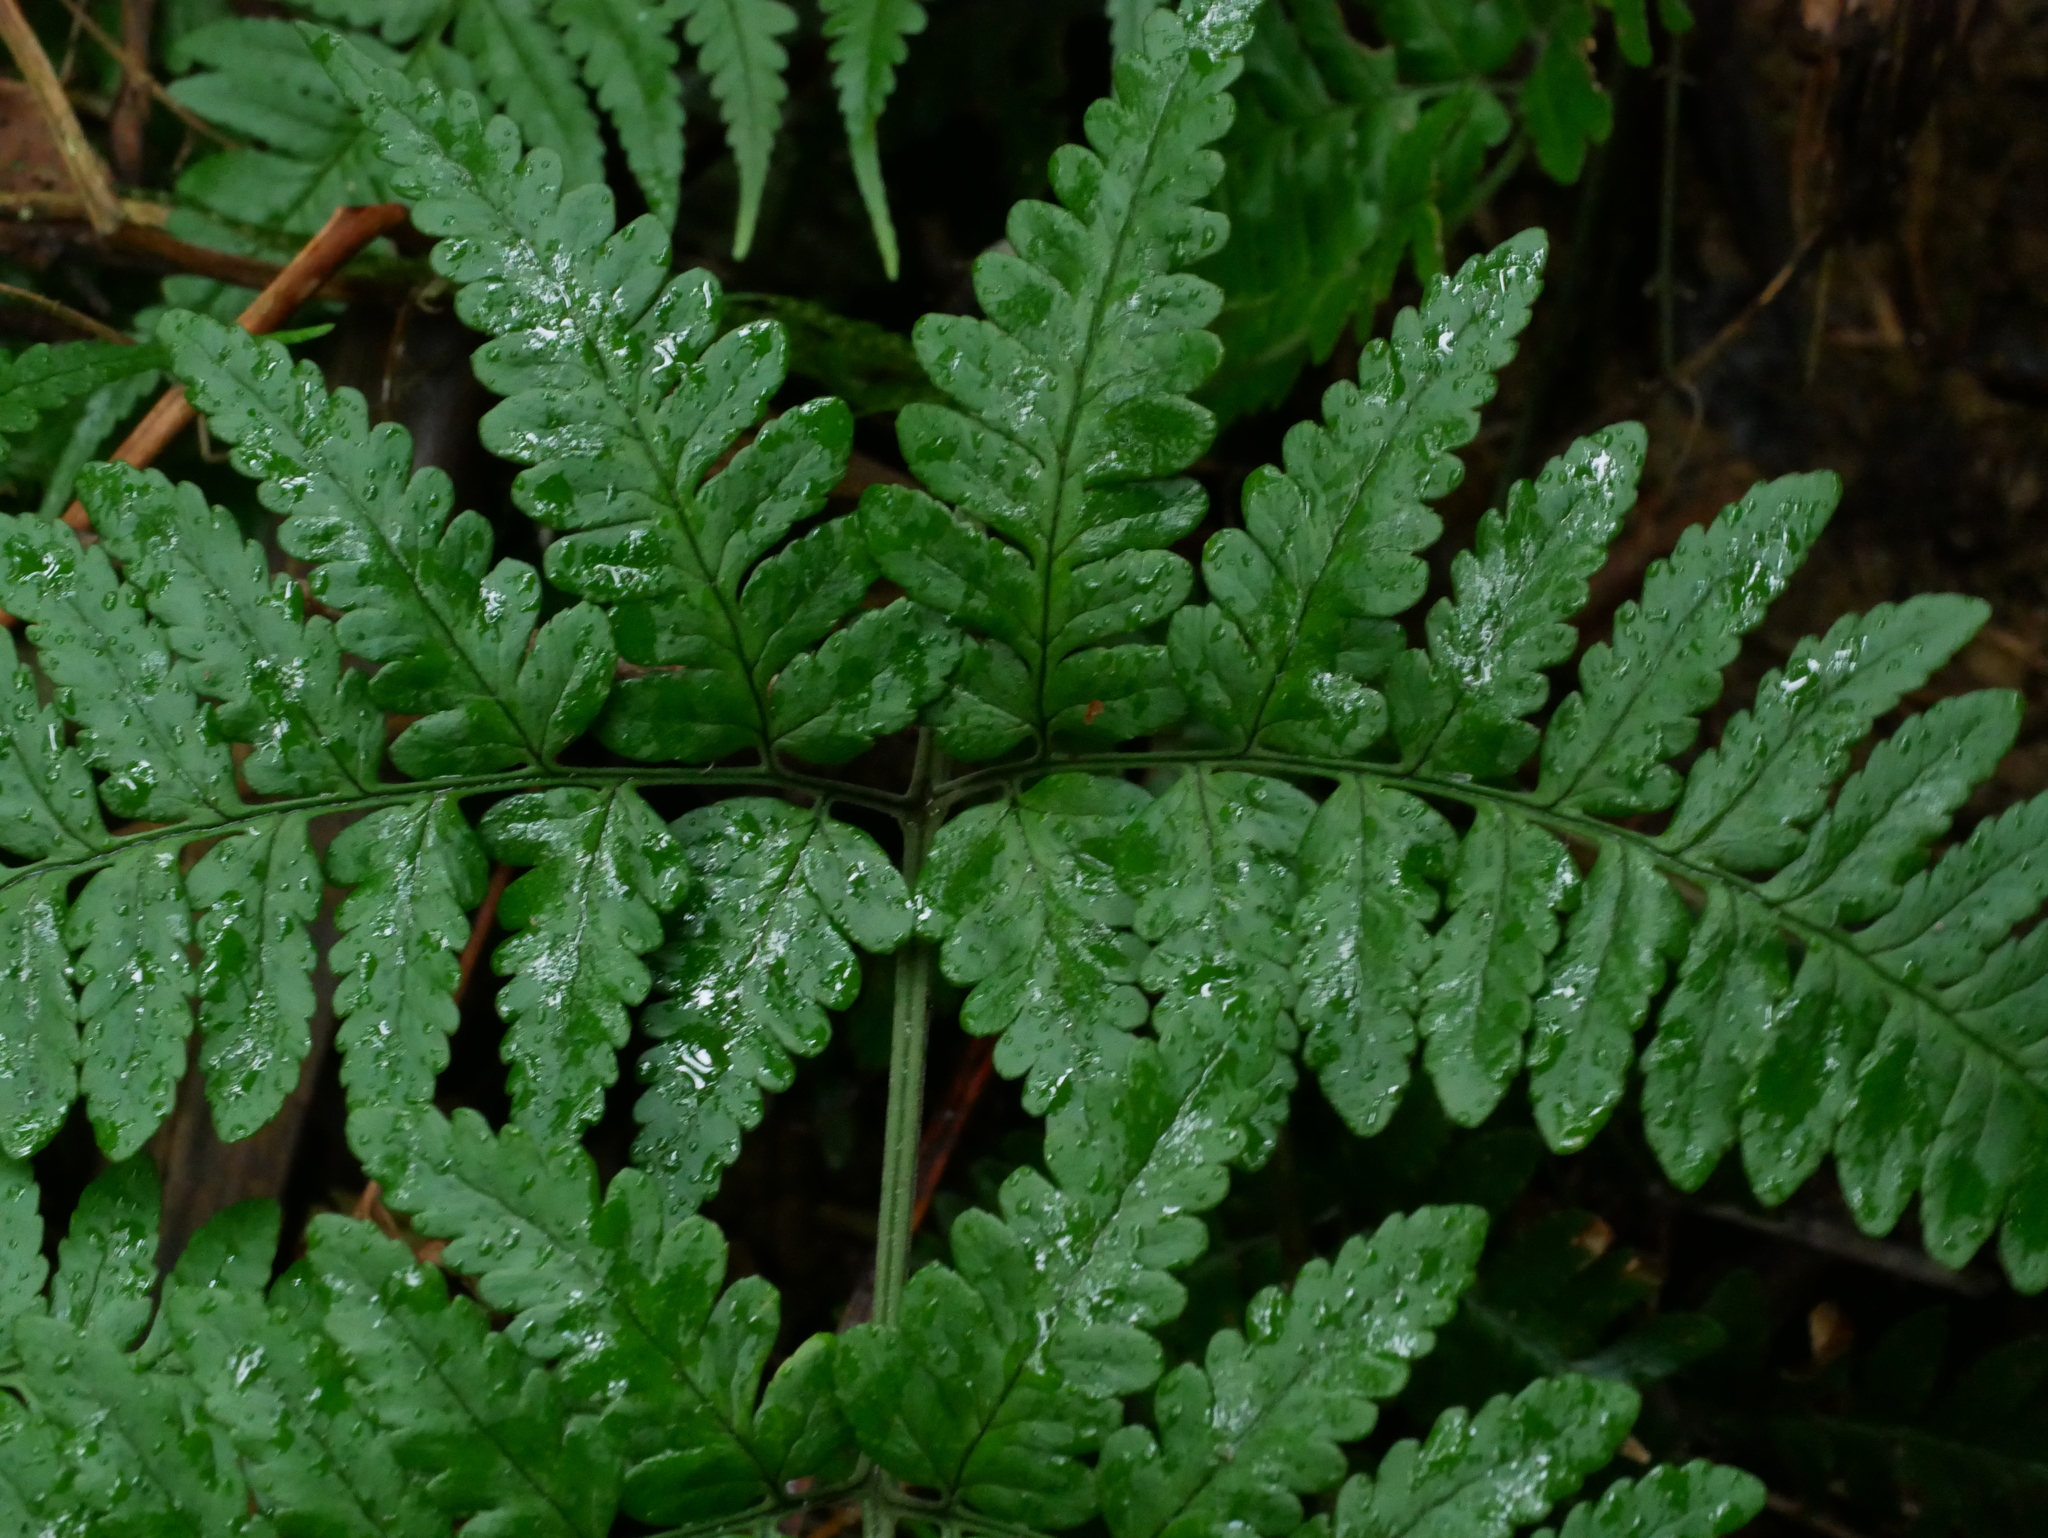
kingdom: Plantae
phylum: Tracheophyta
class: Polypodiopsida
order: Polypodiales
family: Dryopteridaceae
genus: Dryopteris
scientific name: Dryopteris sparsa
